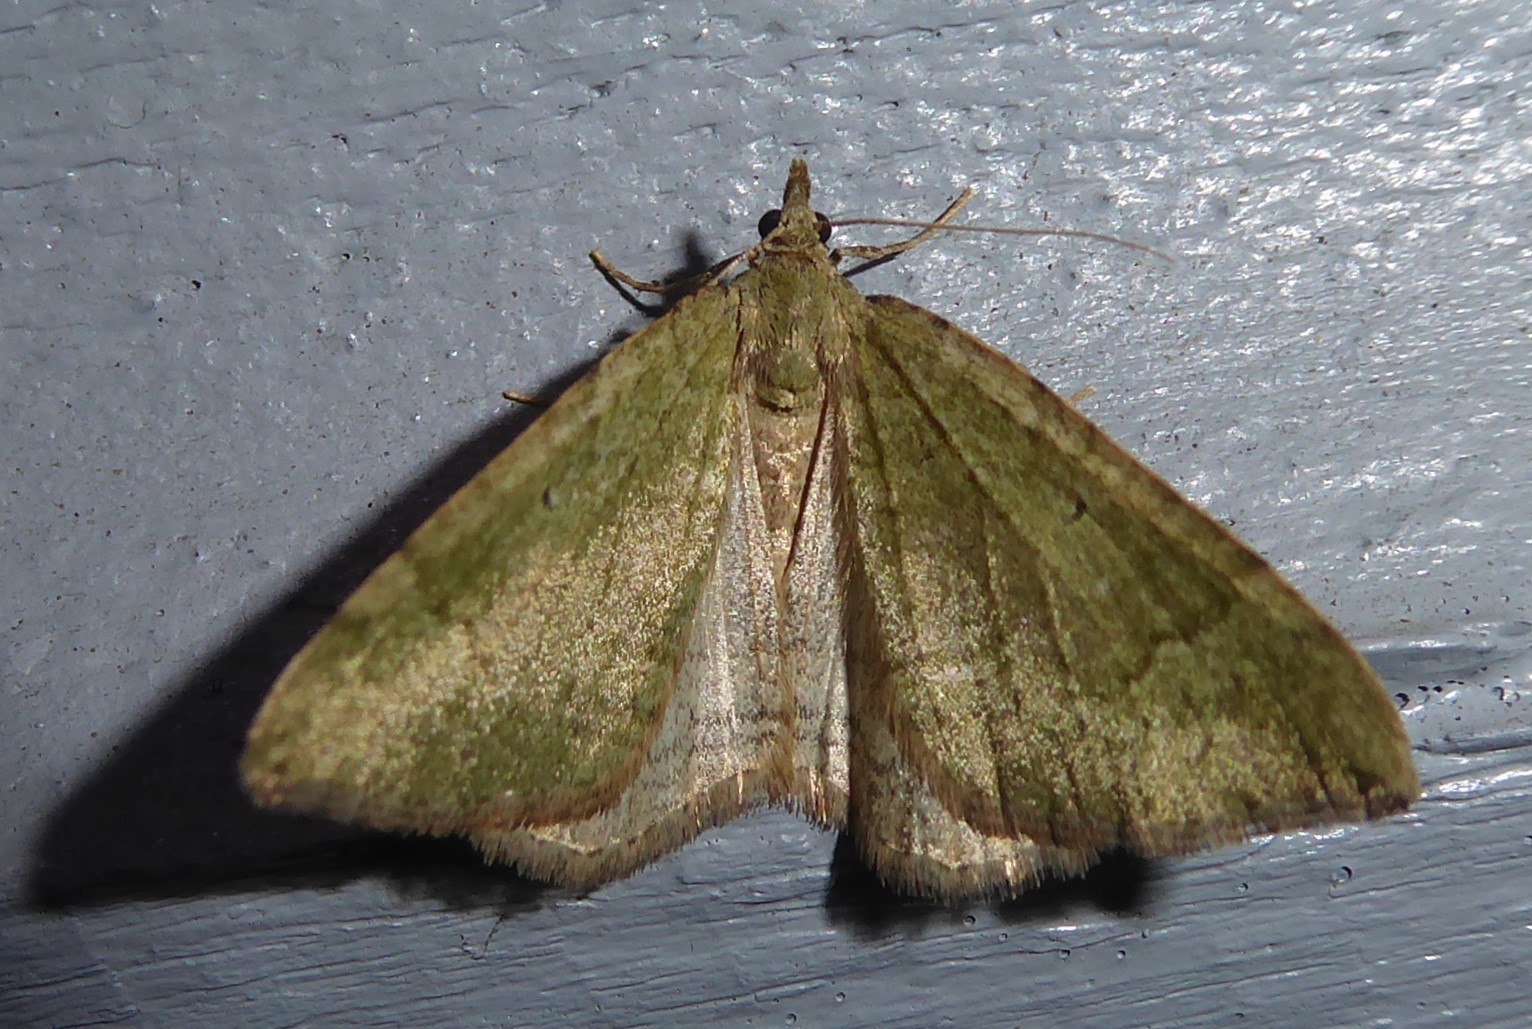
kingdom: Animalia
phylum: Arthropoda
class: Insecta
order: Lepidoptera
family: Geometridae
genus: Epyaxa
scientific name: Epyaxa rosearia
